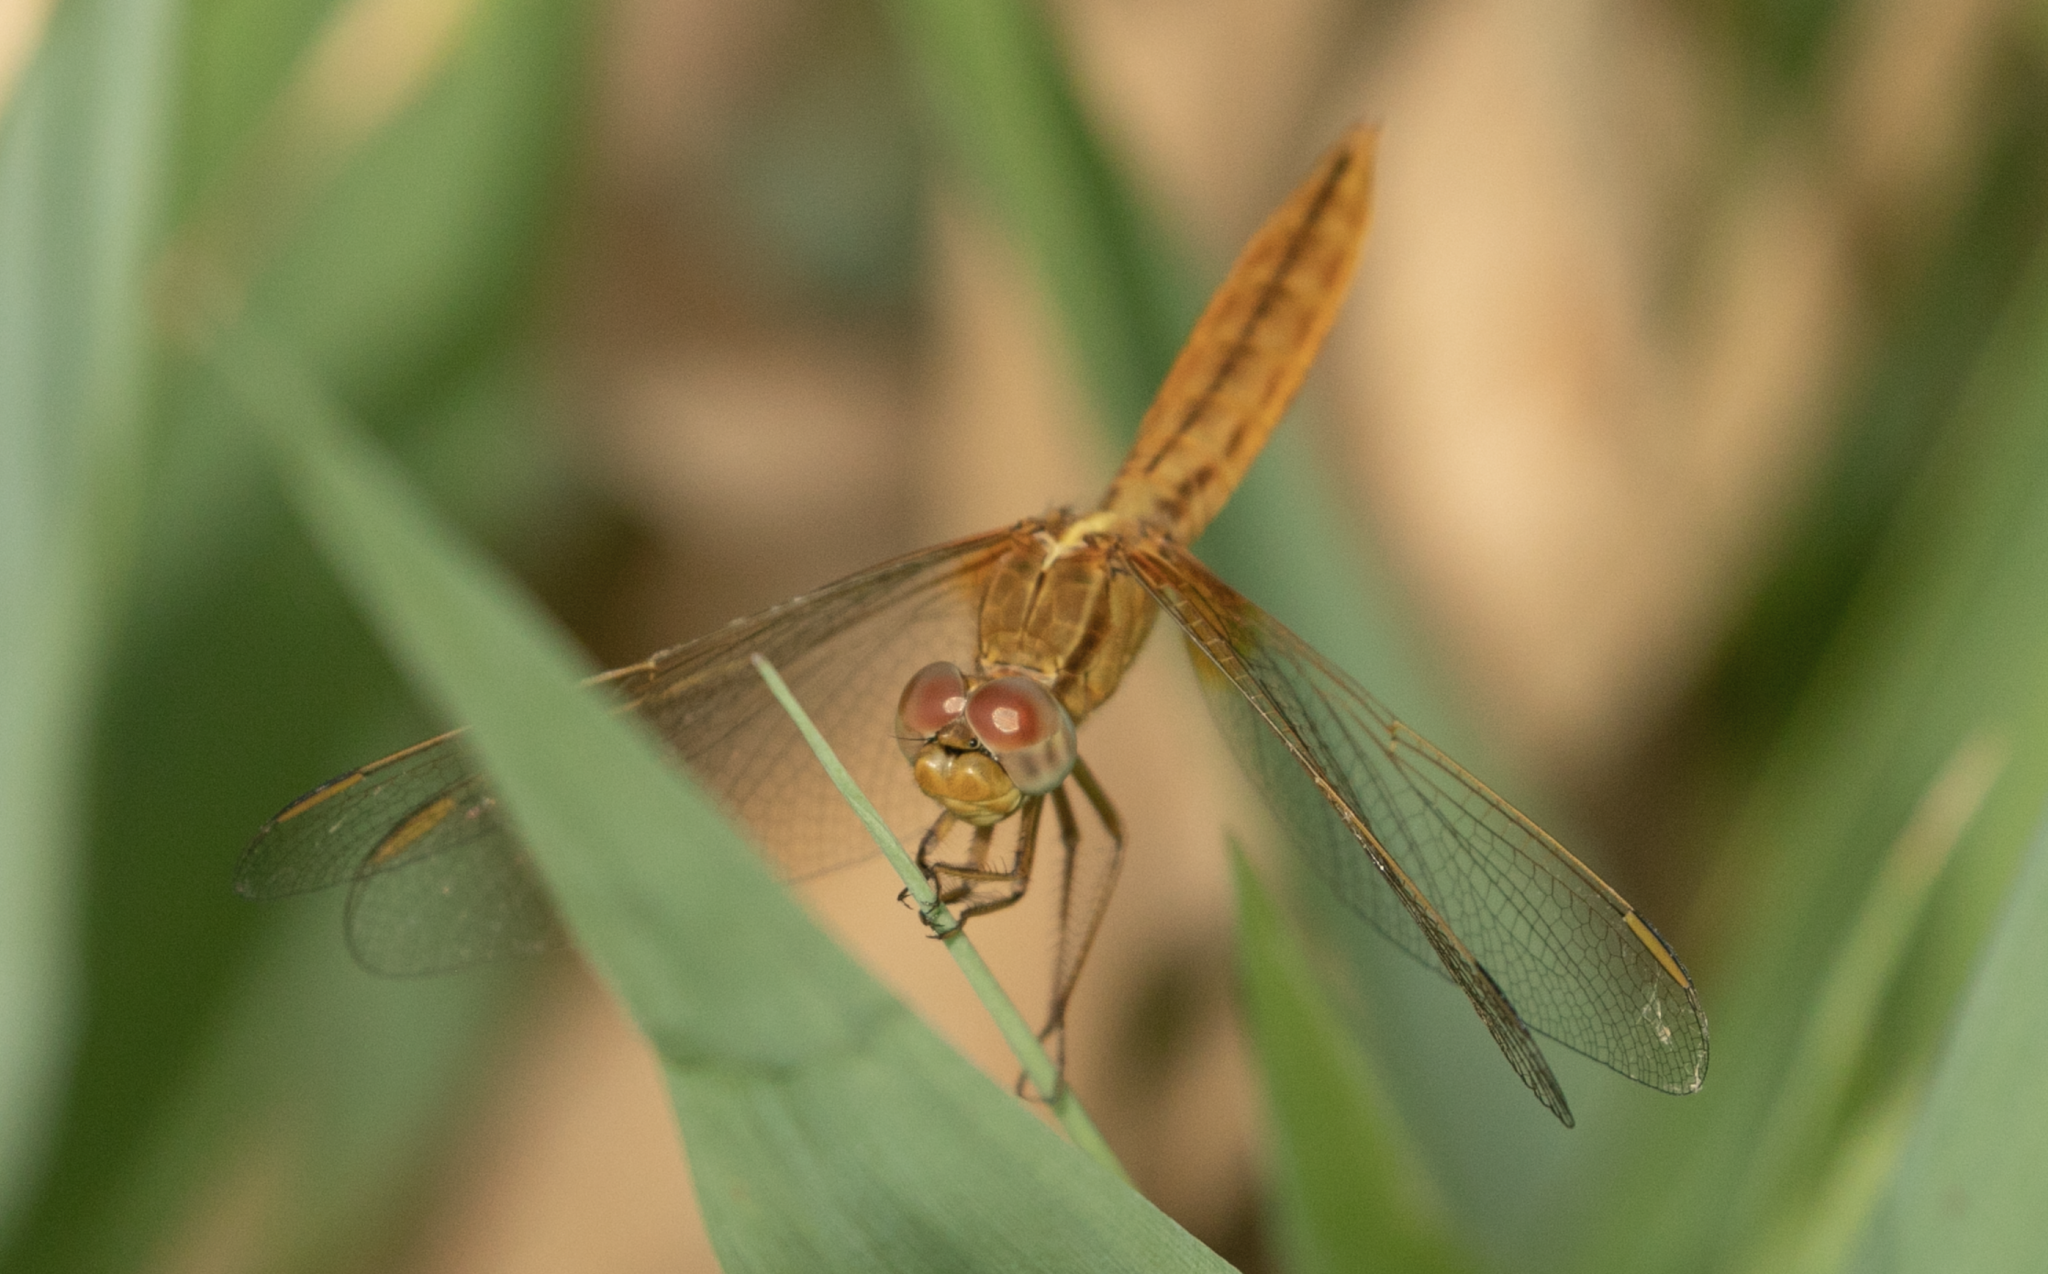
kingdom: Animalia
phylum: Arthropoda
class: Insecta
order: Odonata
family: Libellulidae
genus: Crocothemis
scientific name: Crocothemis erythraea
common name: Scarlet dragonfly
